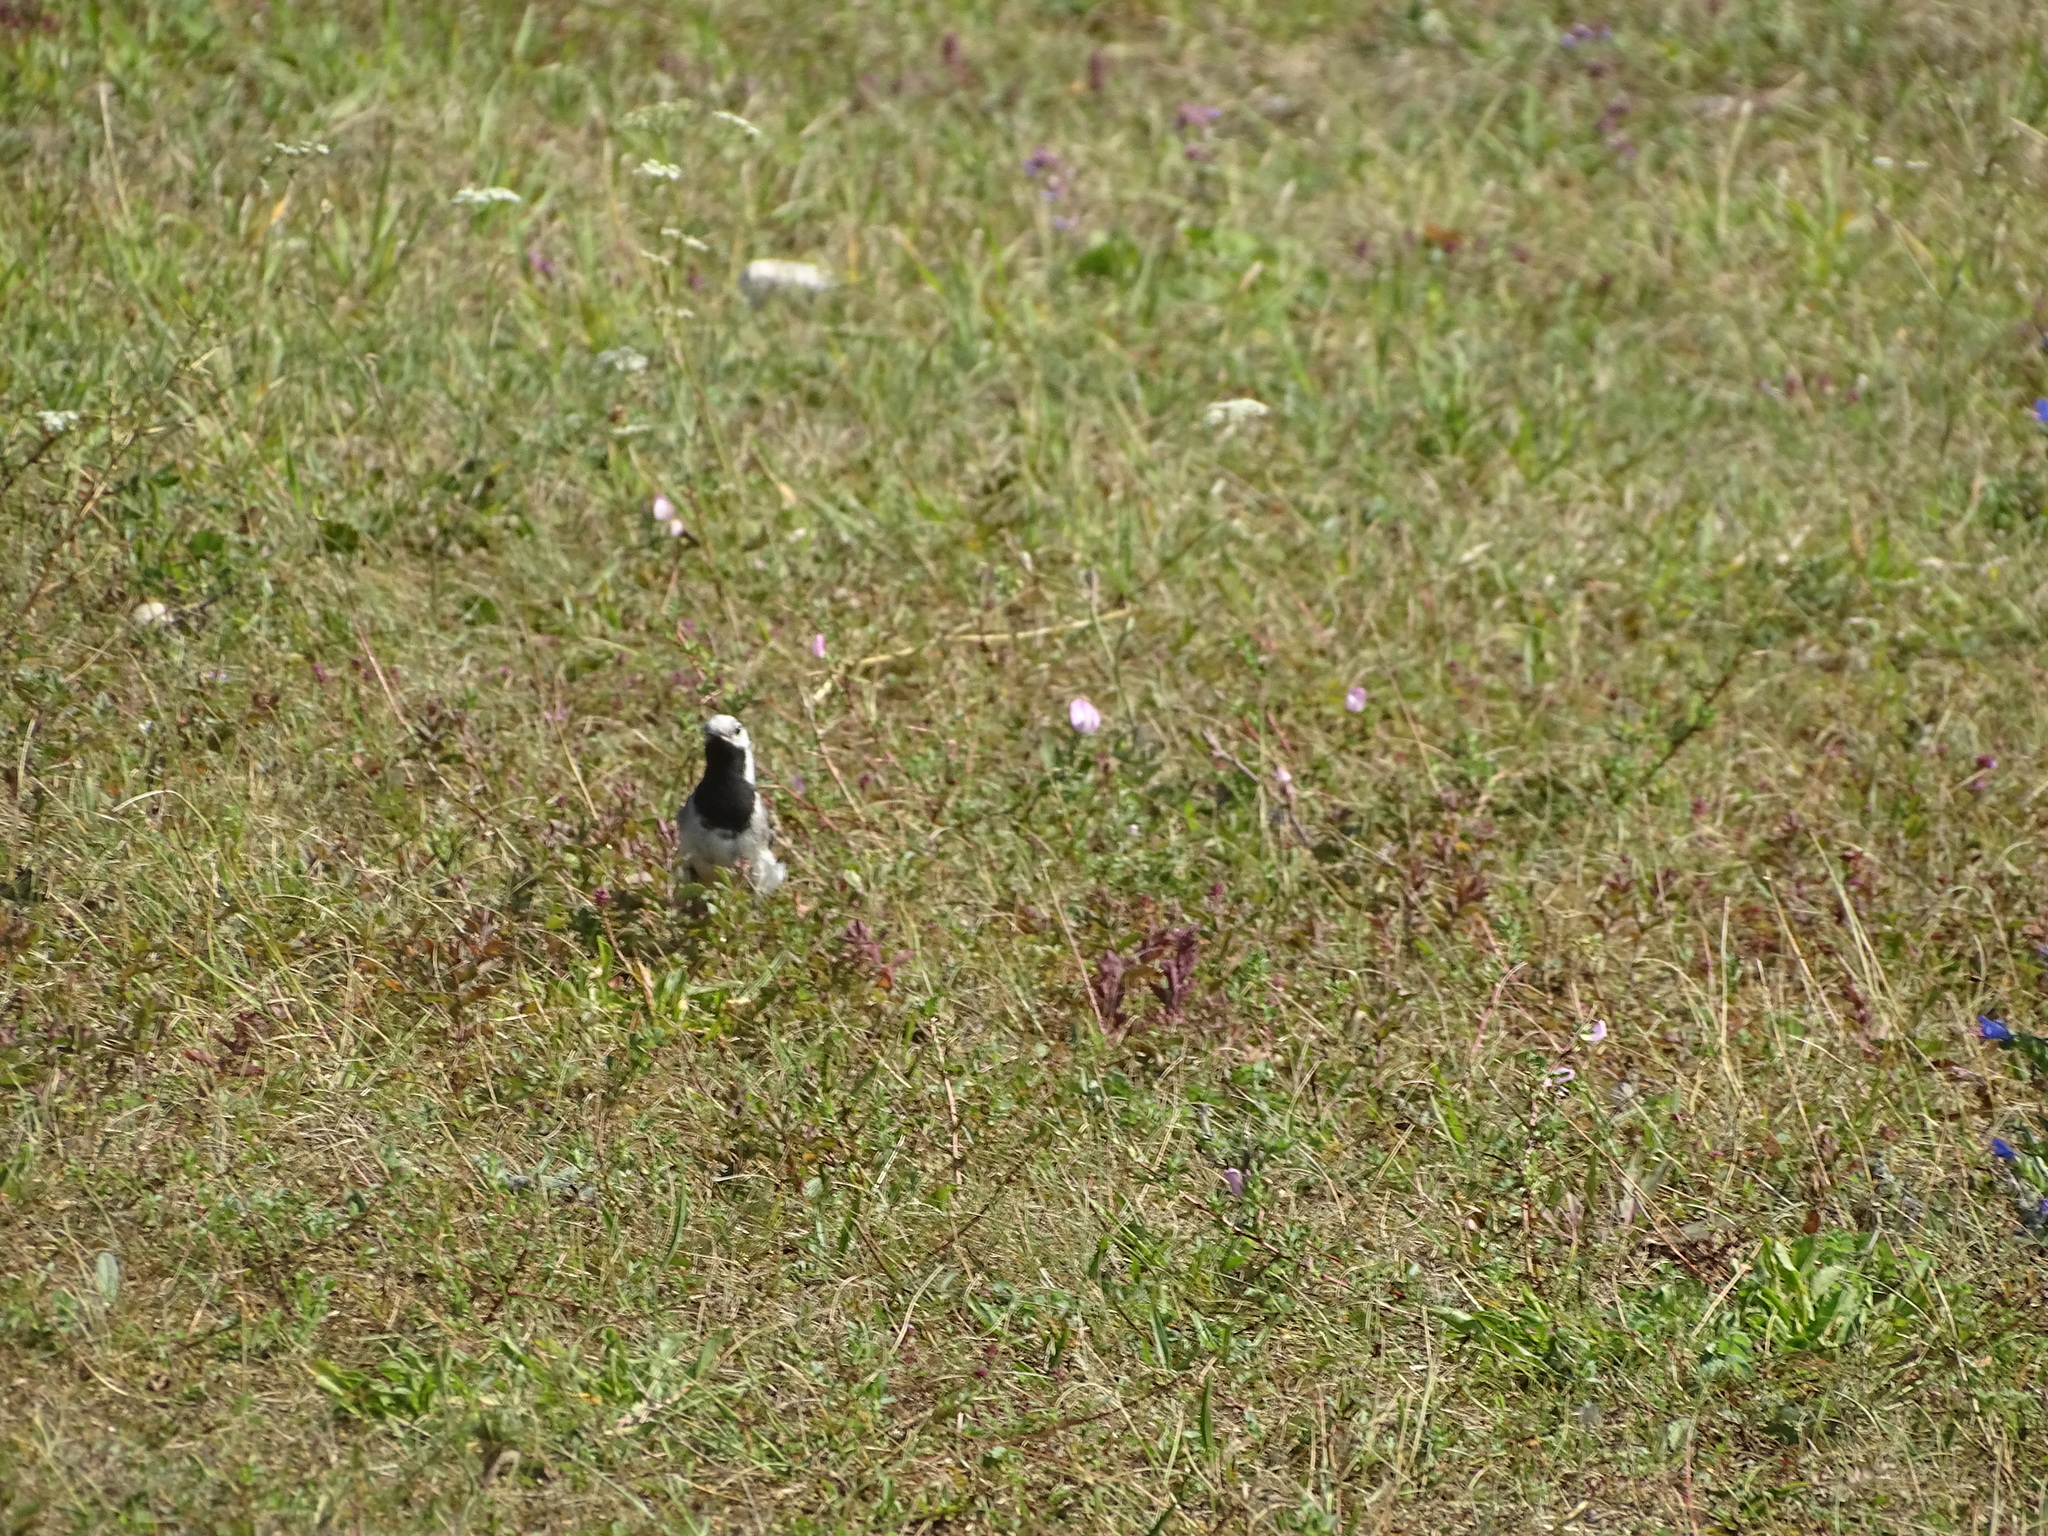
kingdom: Animalia
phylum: Chordata
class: Aves
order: Passeriformes
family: Motacillidae
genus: Motacilla
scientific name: Motacilla alba
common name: White wagtail
